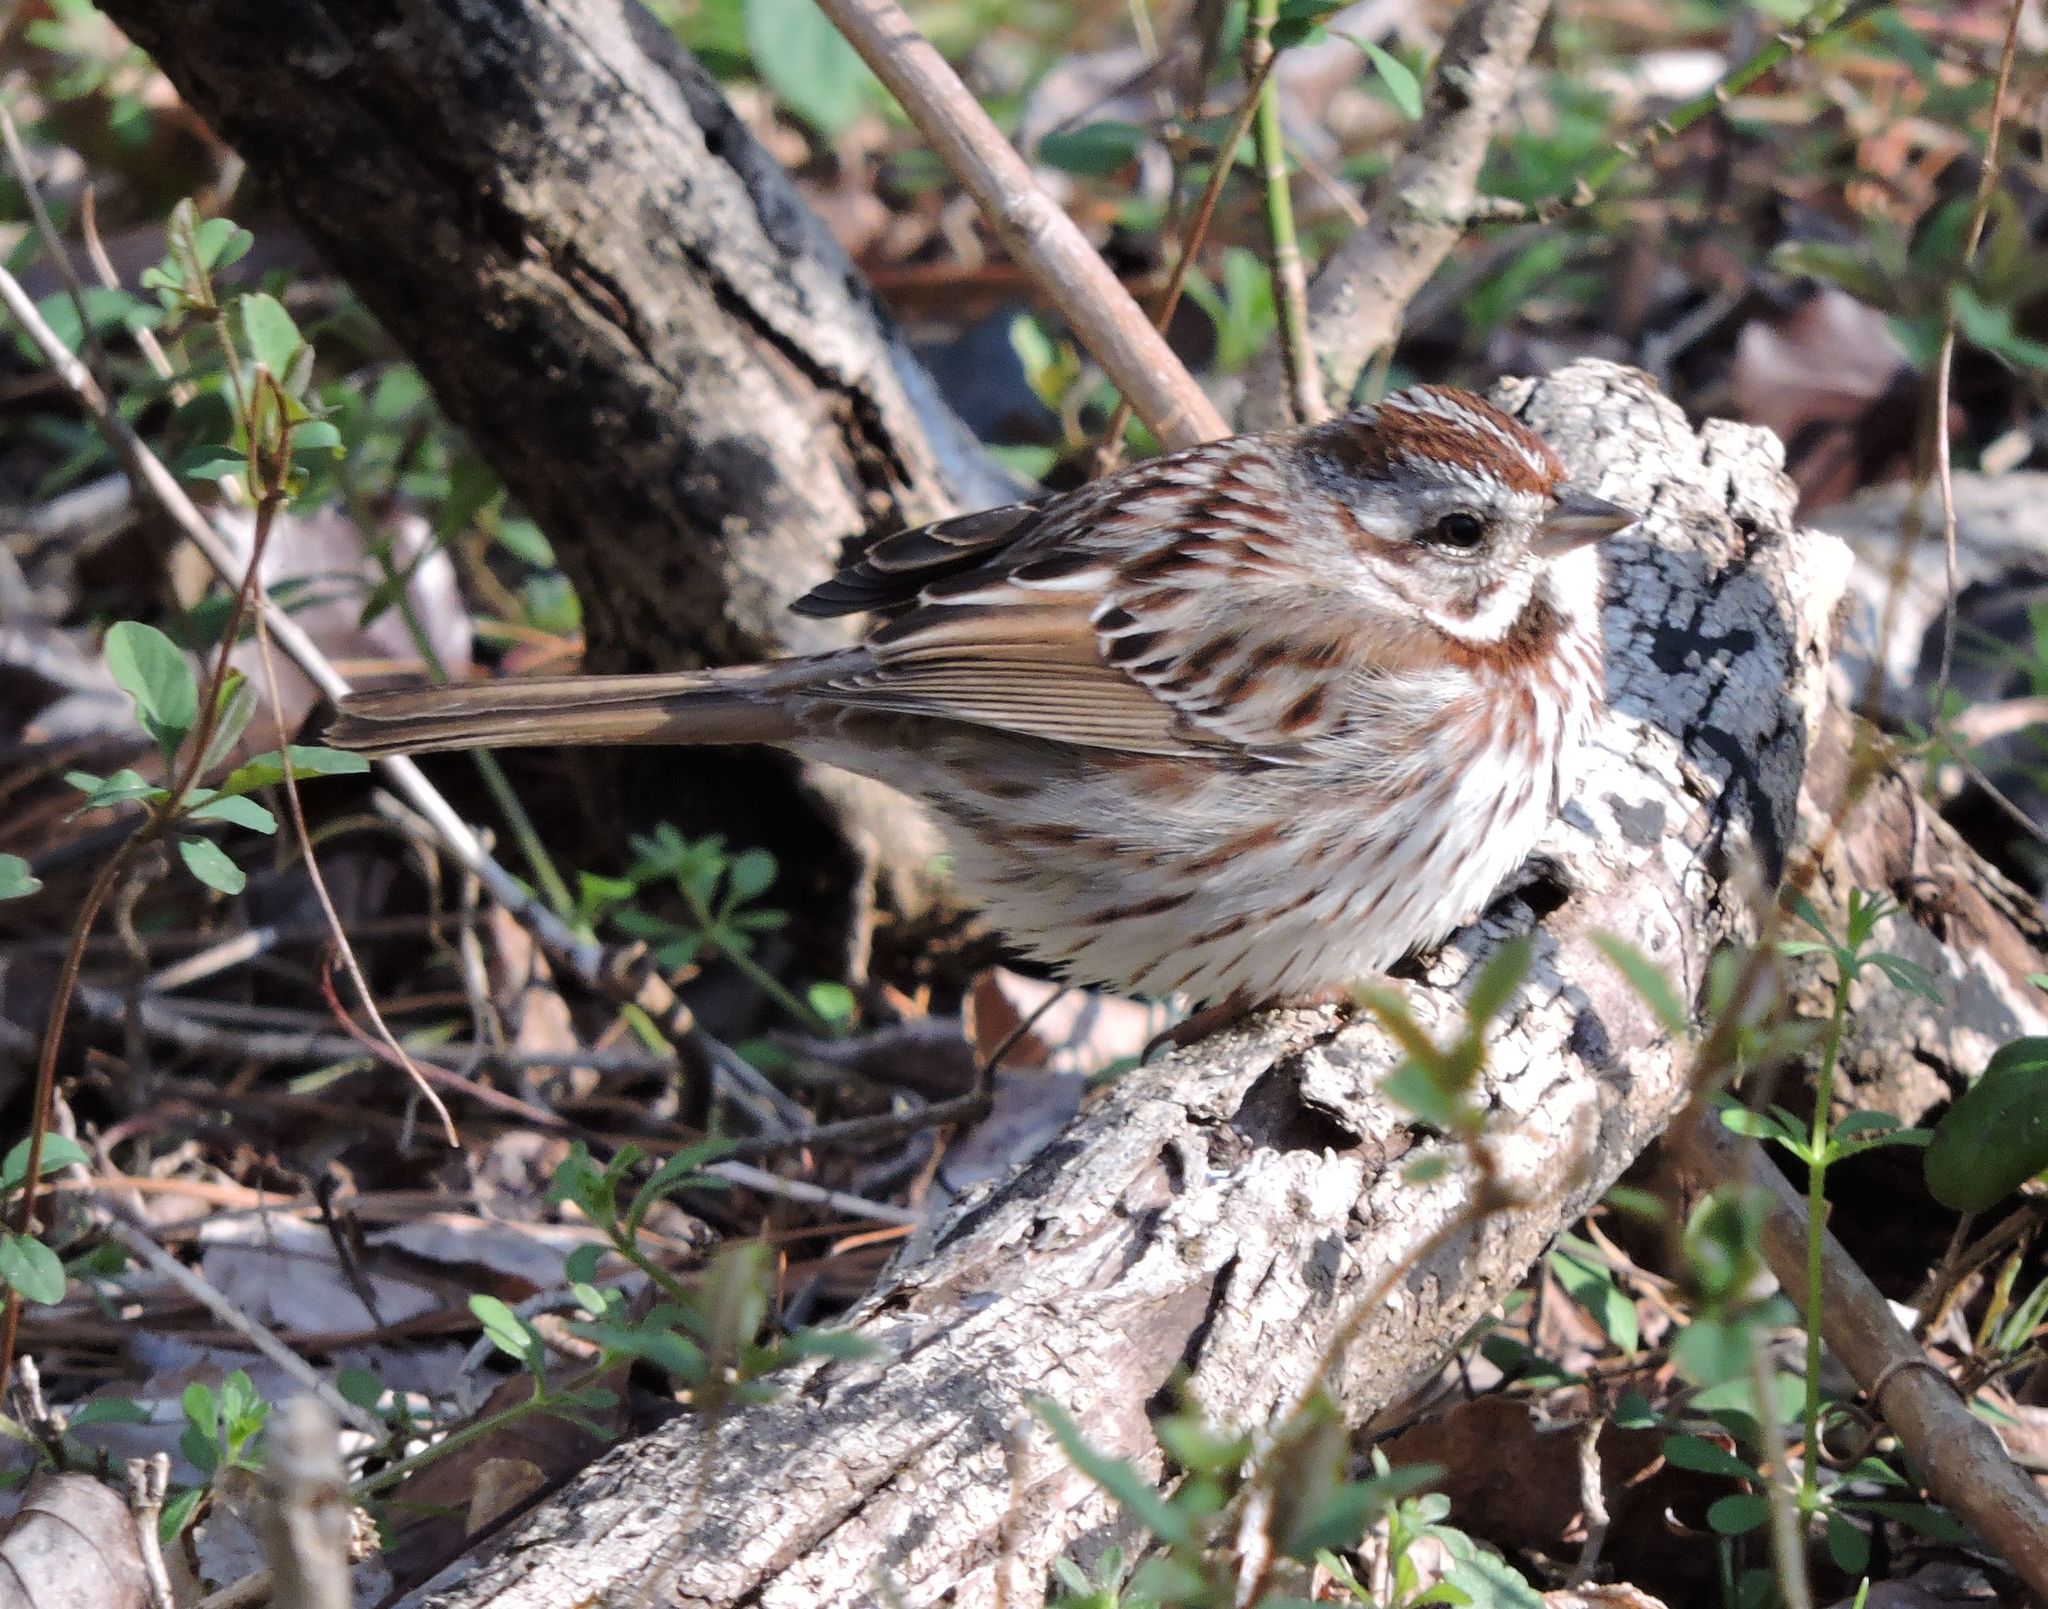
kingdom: Animalia
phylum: Chordata
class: Aves
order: Passeriformes
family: Passerellidae
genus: Melospiza
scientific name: Melospiza melodia
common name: Song sparrow
